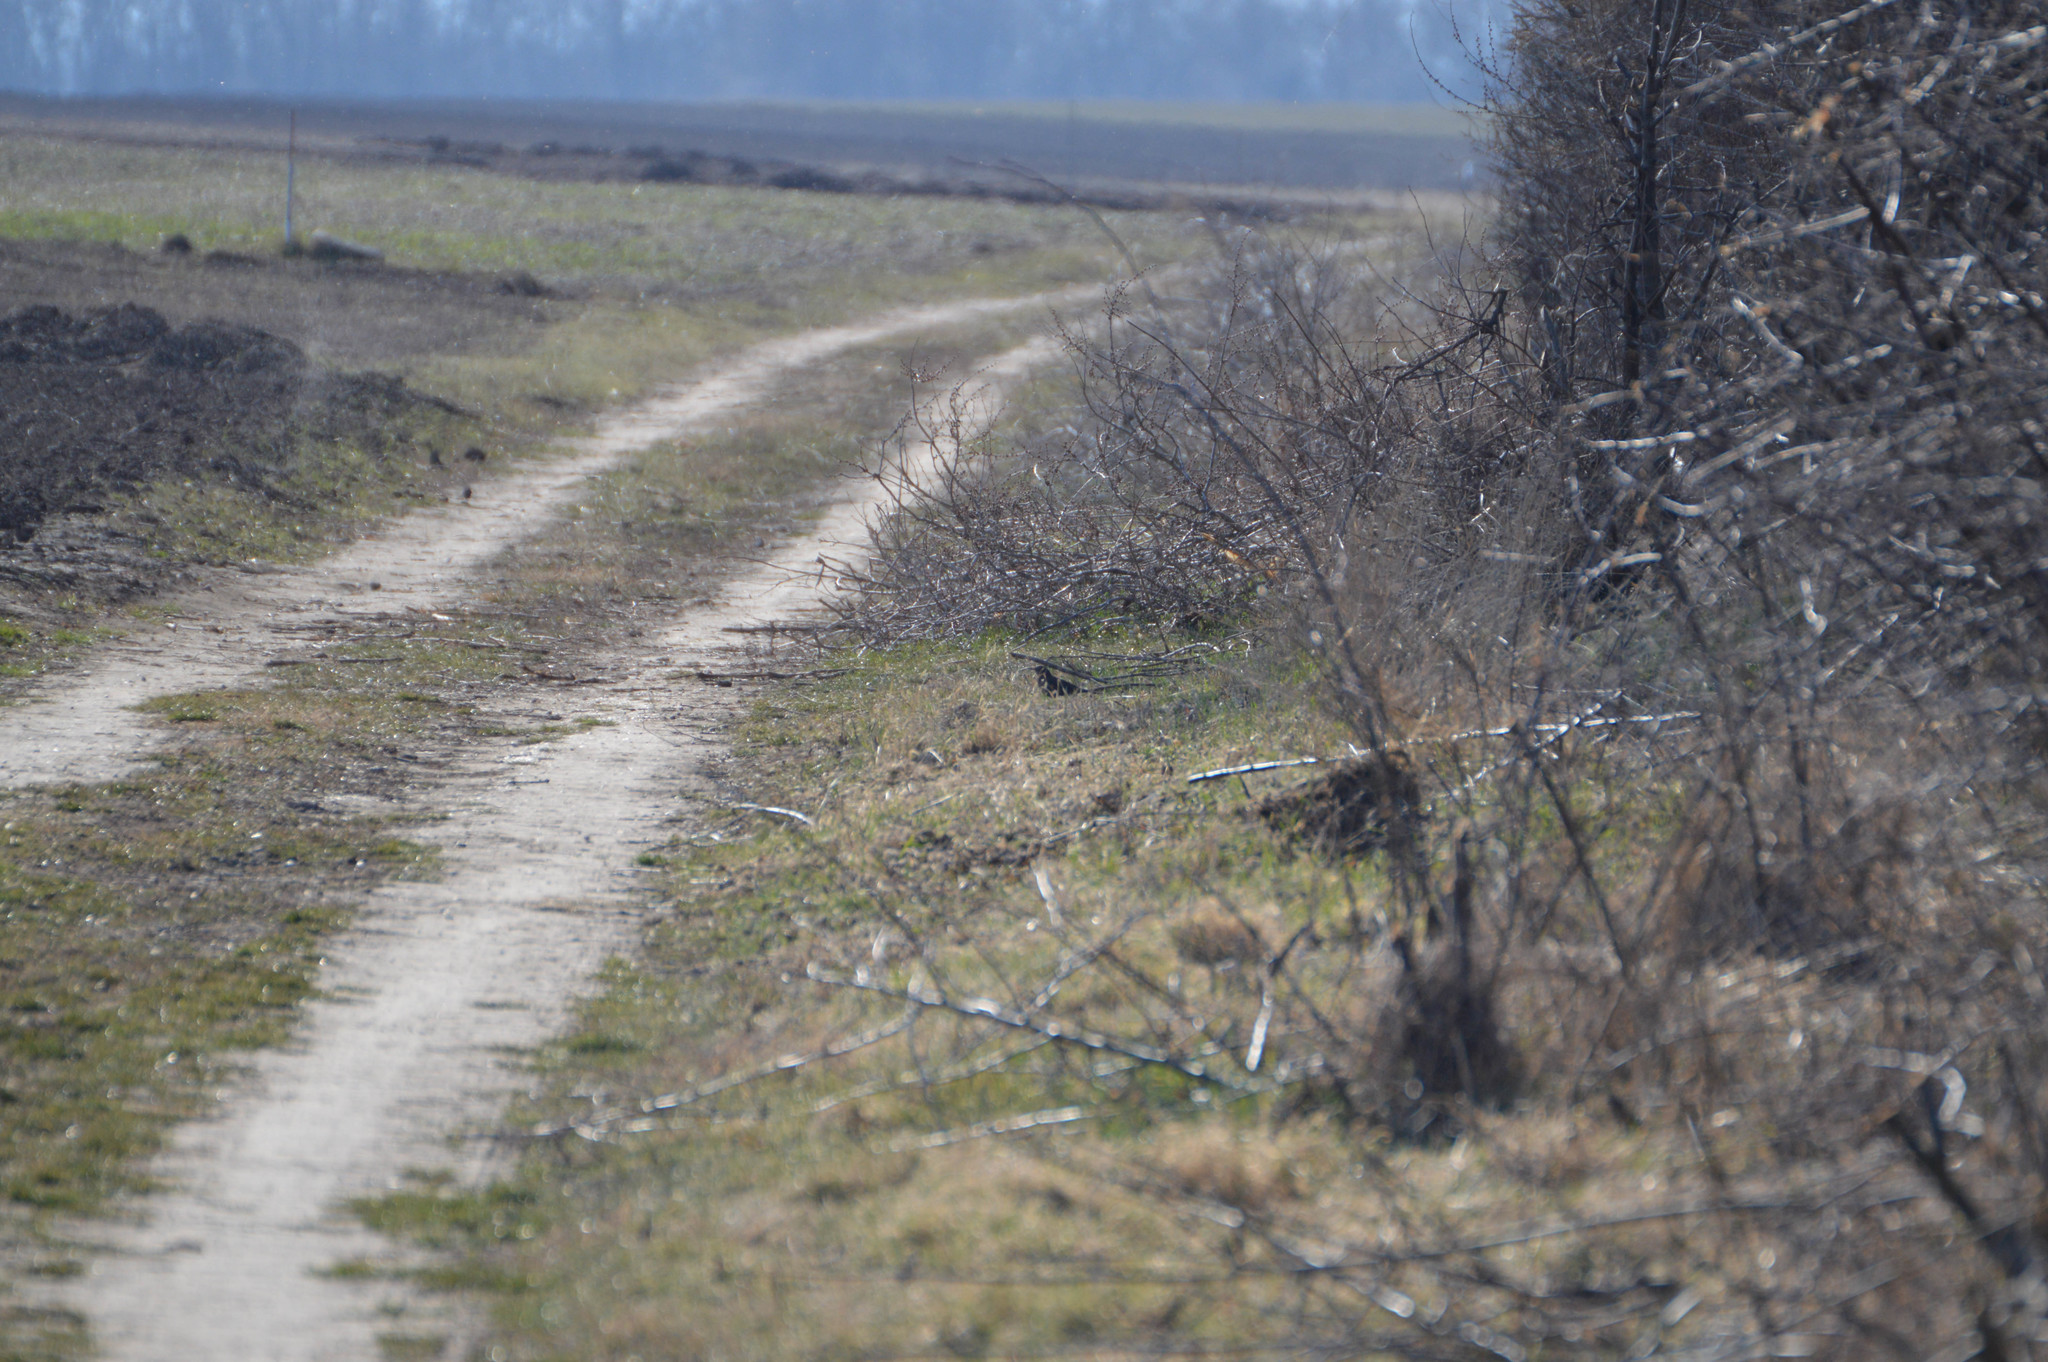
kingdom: Animalia
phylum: Chordata
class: Aves
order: Passeriformes
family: Turdidae
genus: Turdus
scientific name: Turdus merula
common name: Common blackbird
